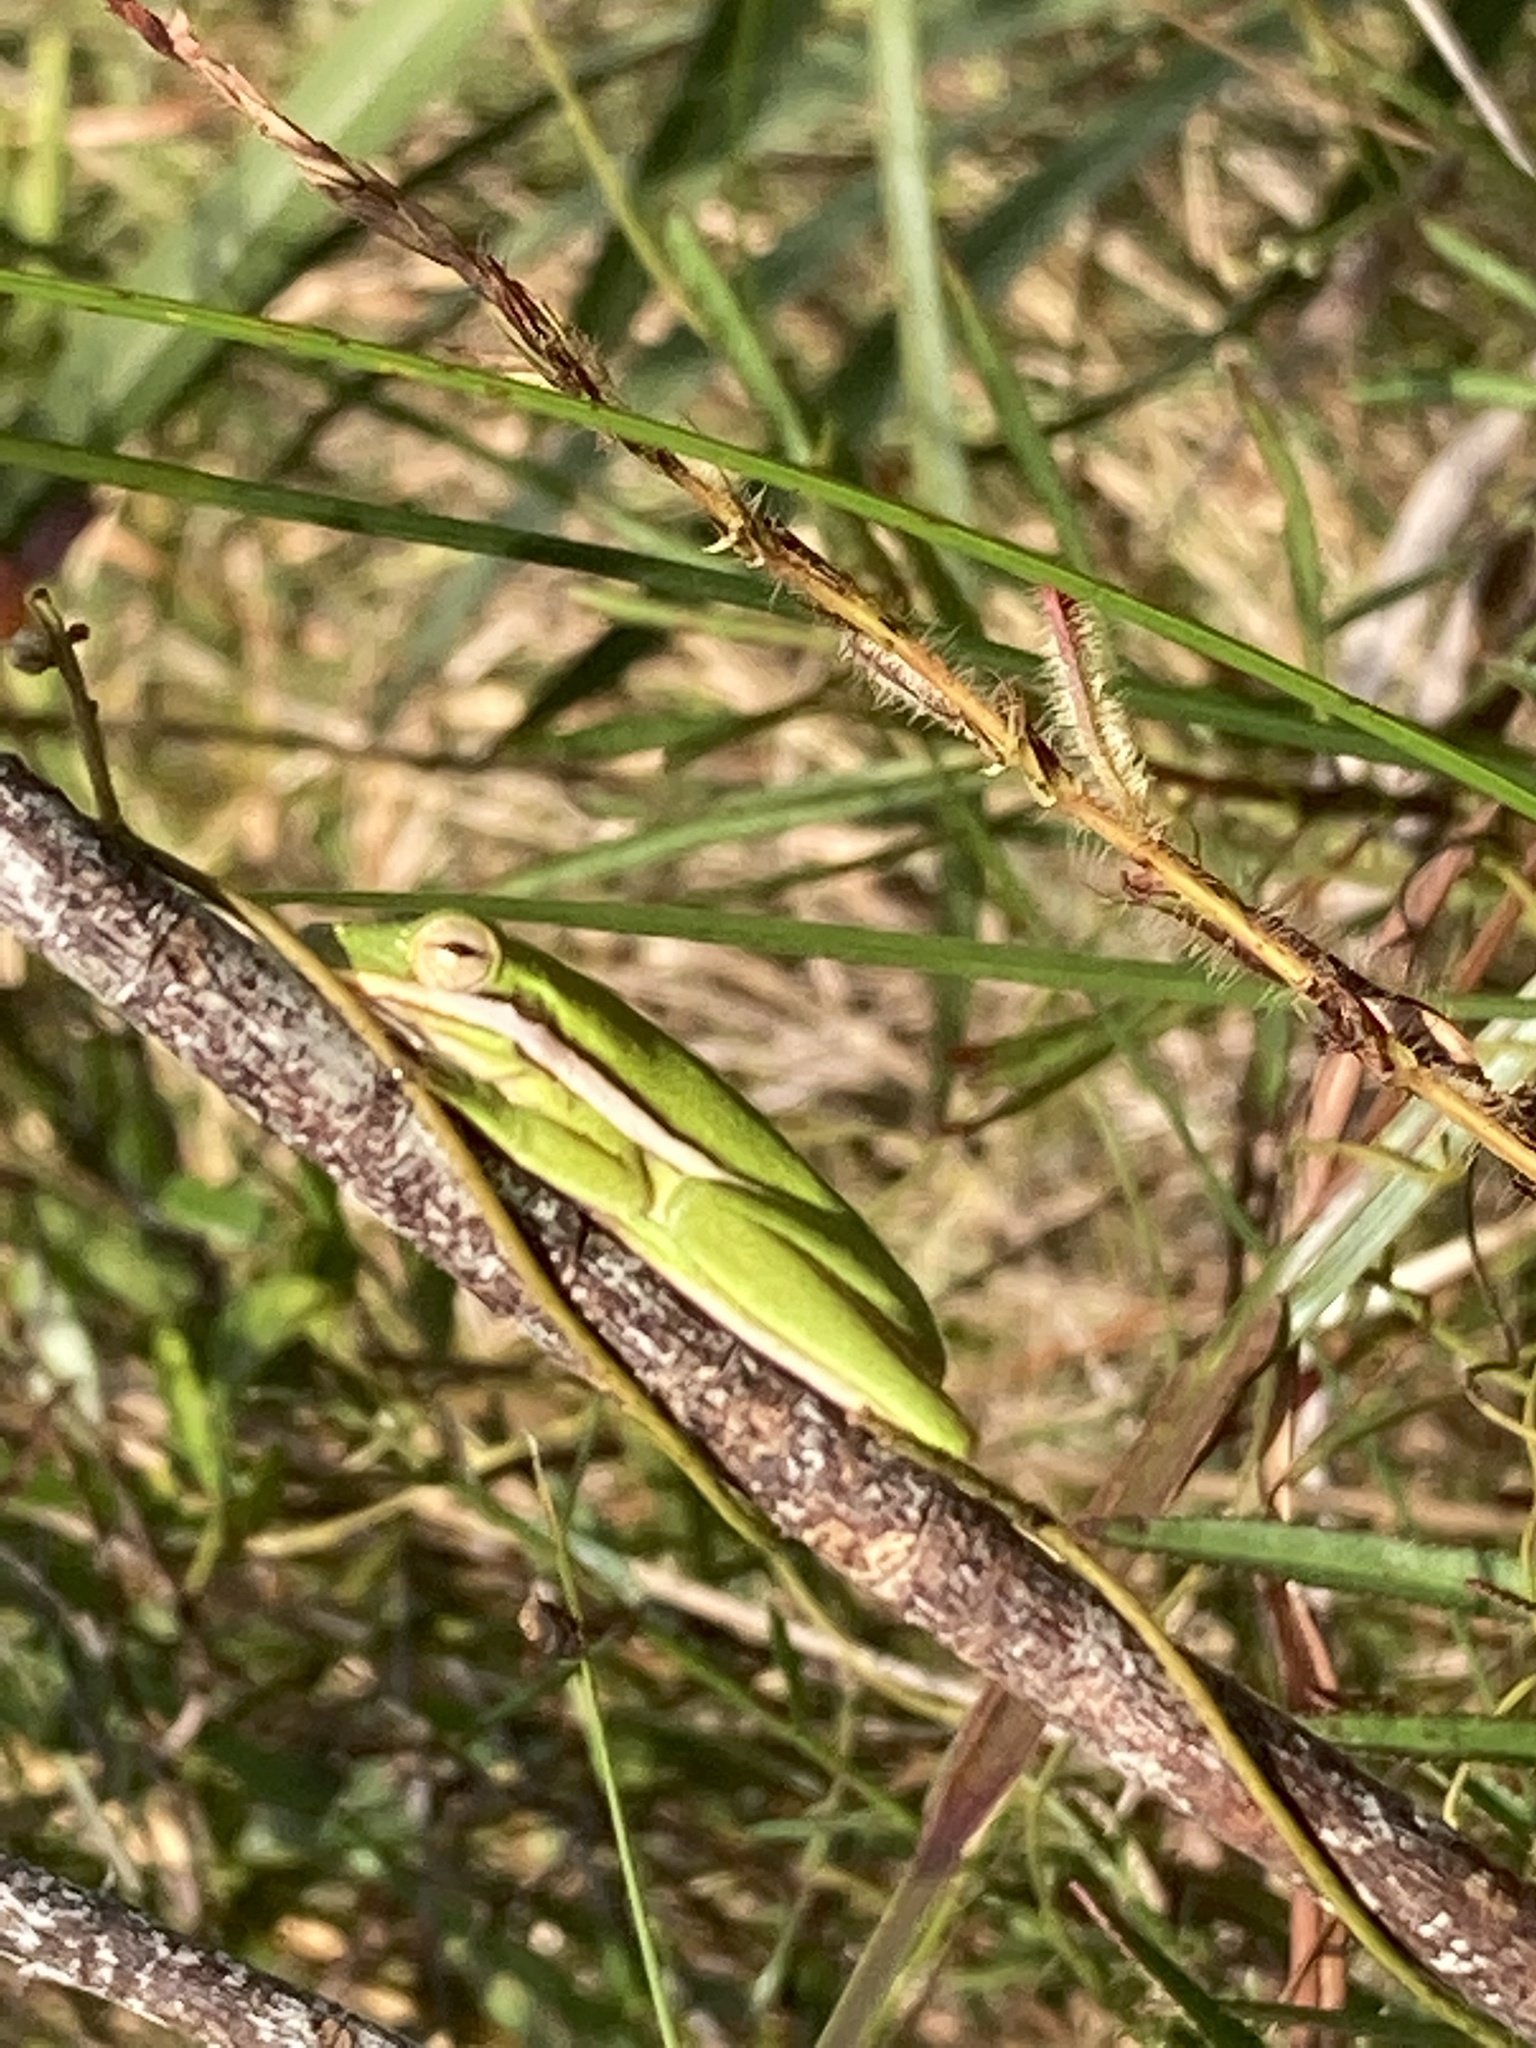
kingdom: Animalia
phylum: Chordata
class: Amphibia
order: Anura
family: Hylidae
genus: Dryophytes
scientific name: Dryophytes cinereus
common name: Green treefrog
